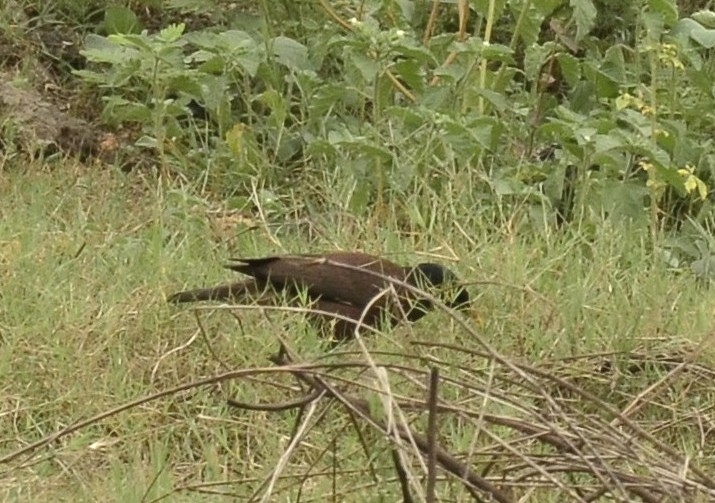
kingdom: Animalia
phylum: Chordata
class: Aves
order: Passeriformes
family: Sturnidae
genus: Acridotheres
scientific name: Acridotheres tristis
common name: Common myna
